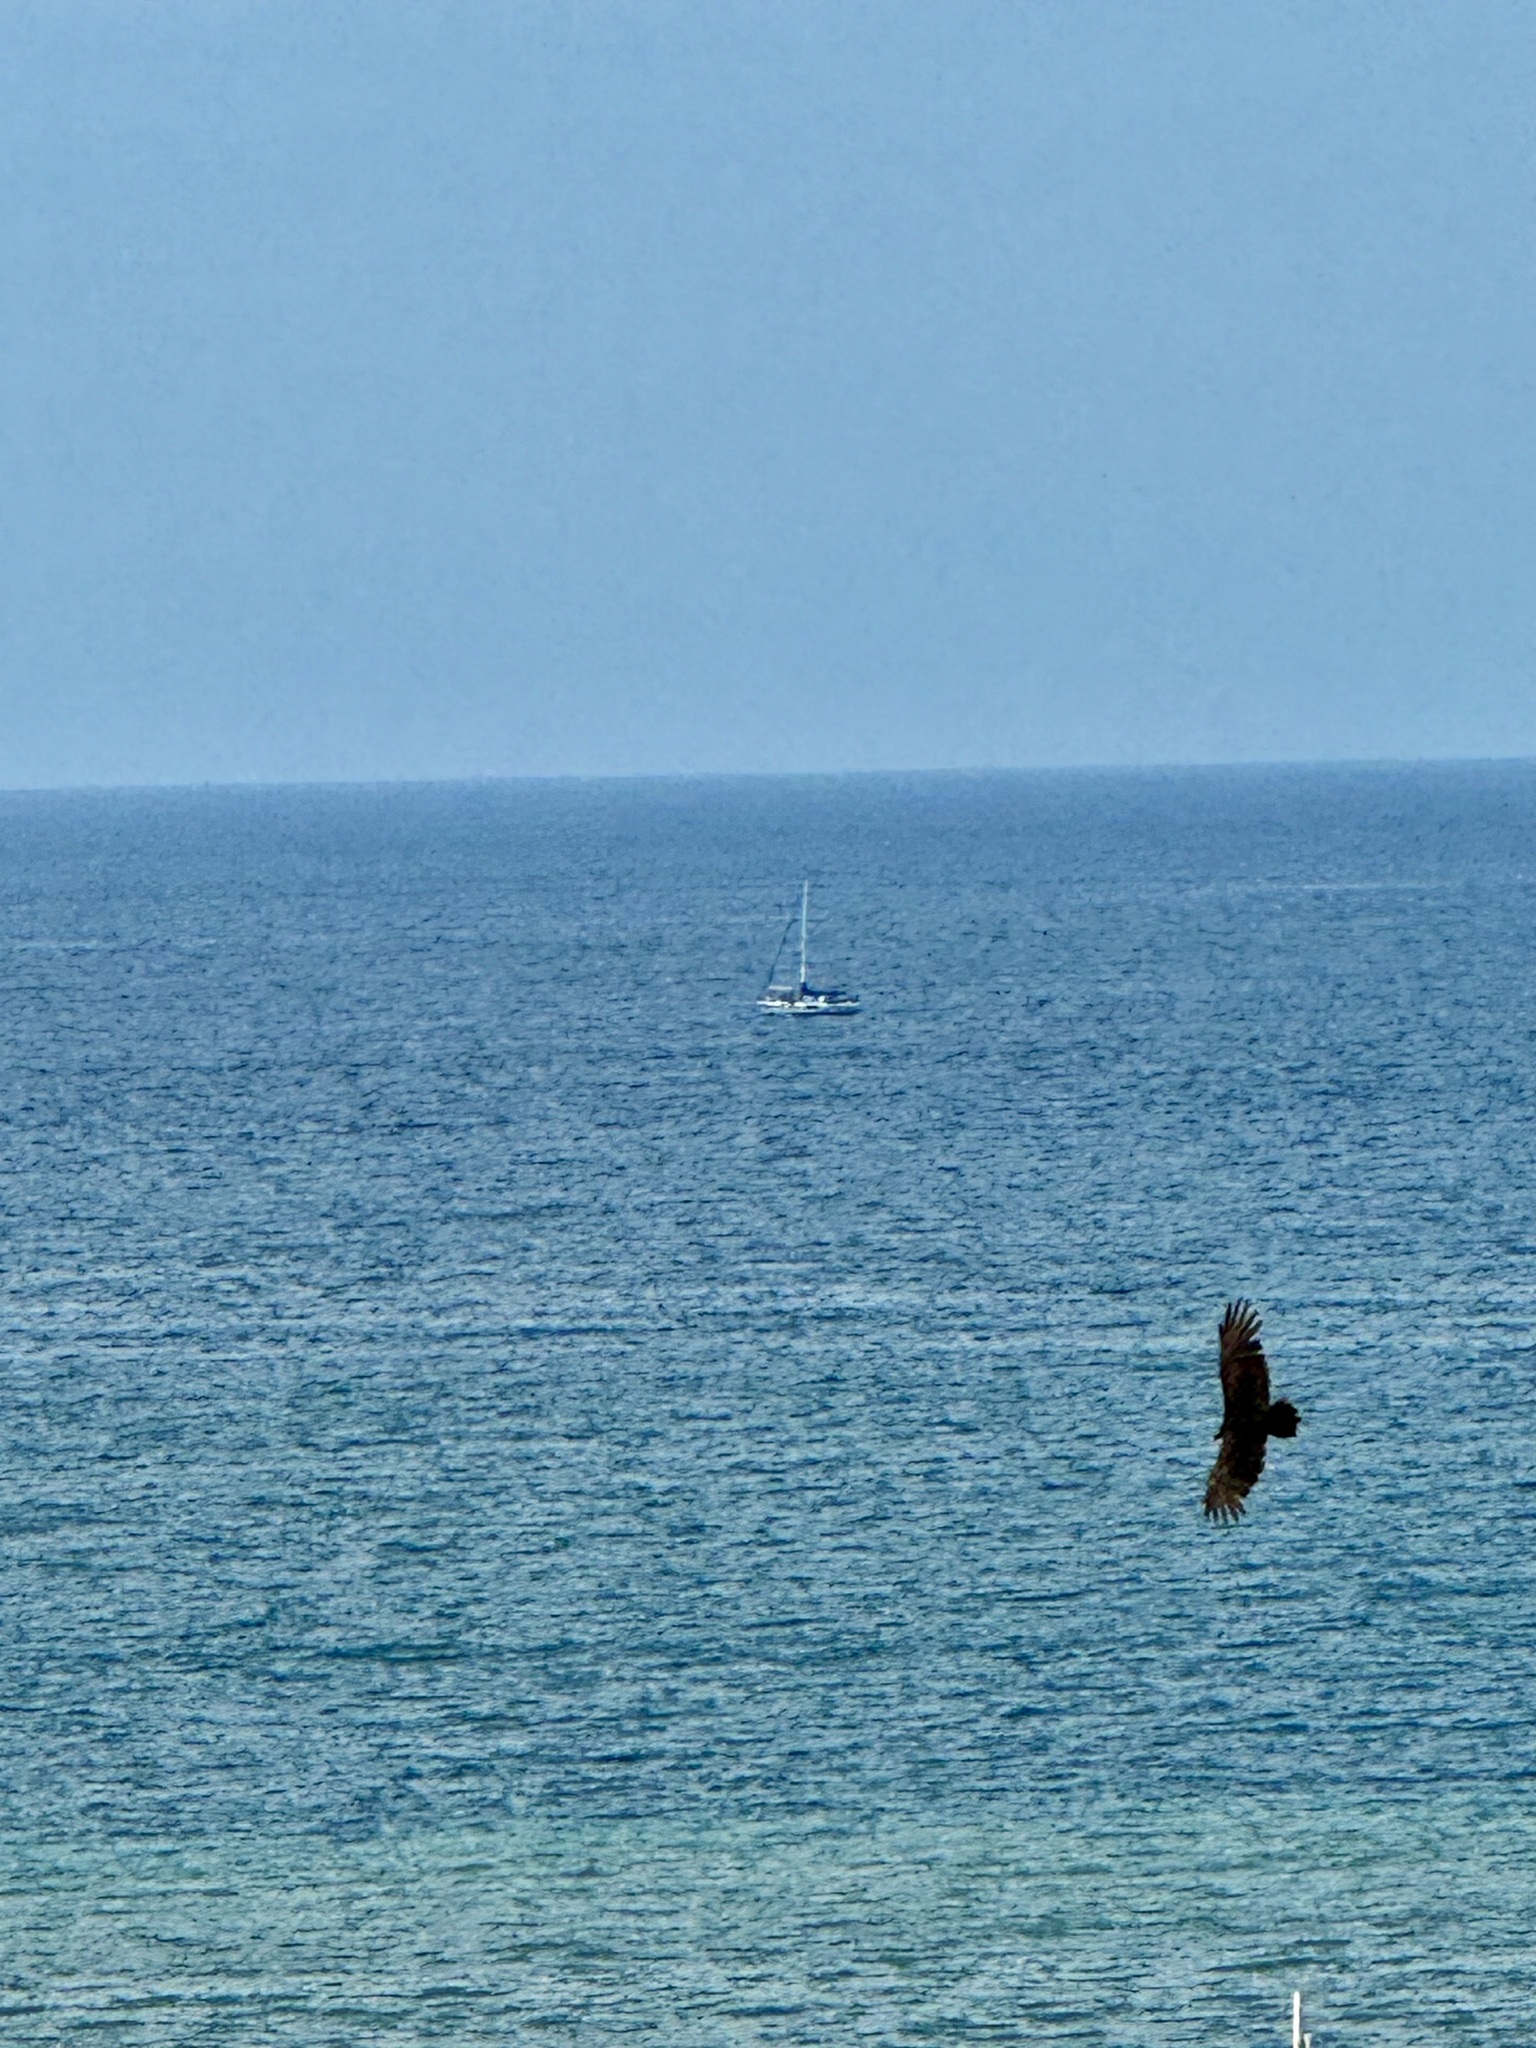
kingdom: Animalia
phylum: Chordata
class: Aves
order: Accipitriformes
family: Cathartidae
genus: Cathartes
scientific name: Cathartes aura
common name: Turkey vulture
